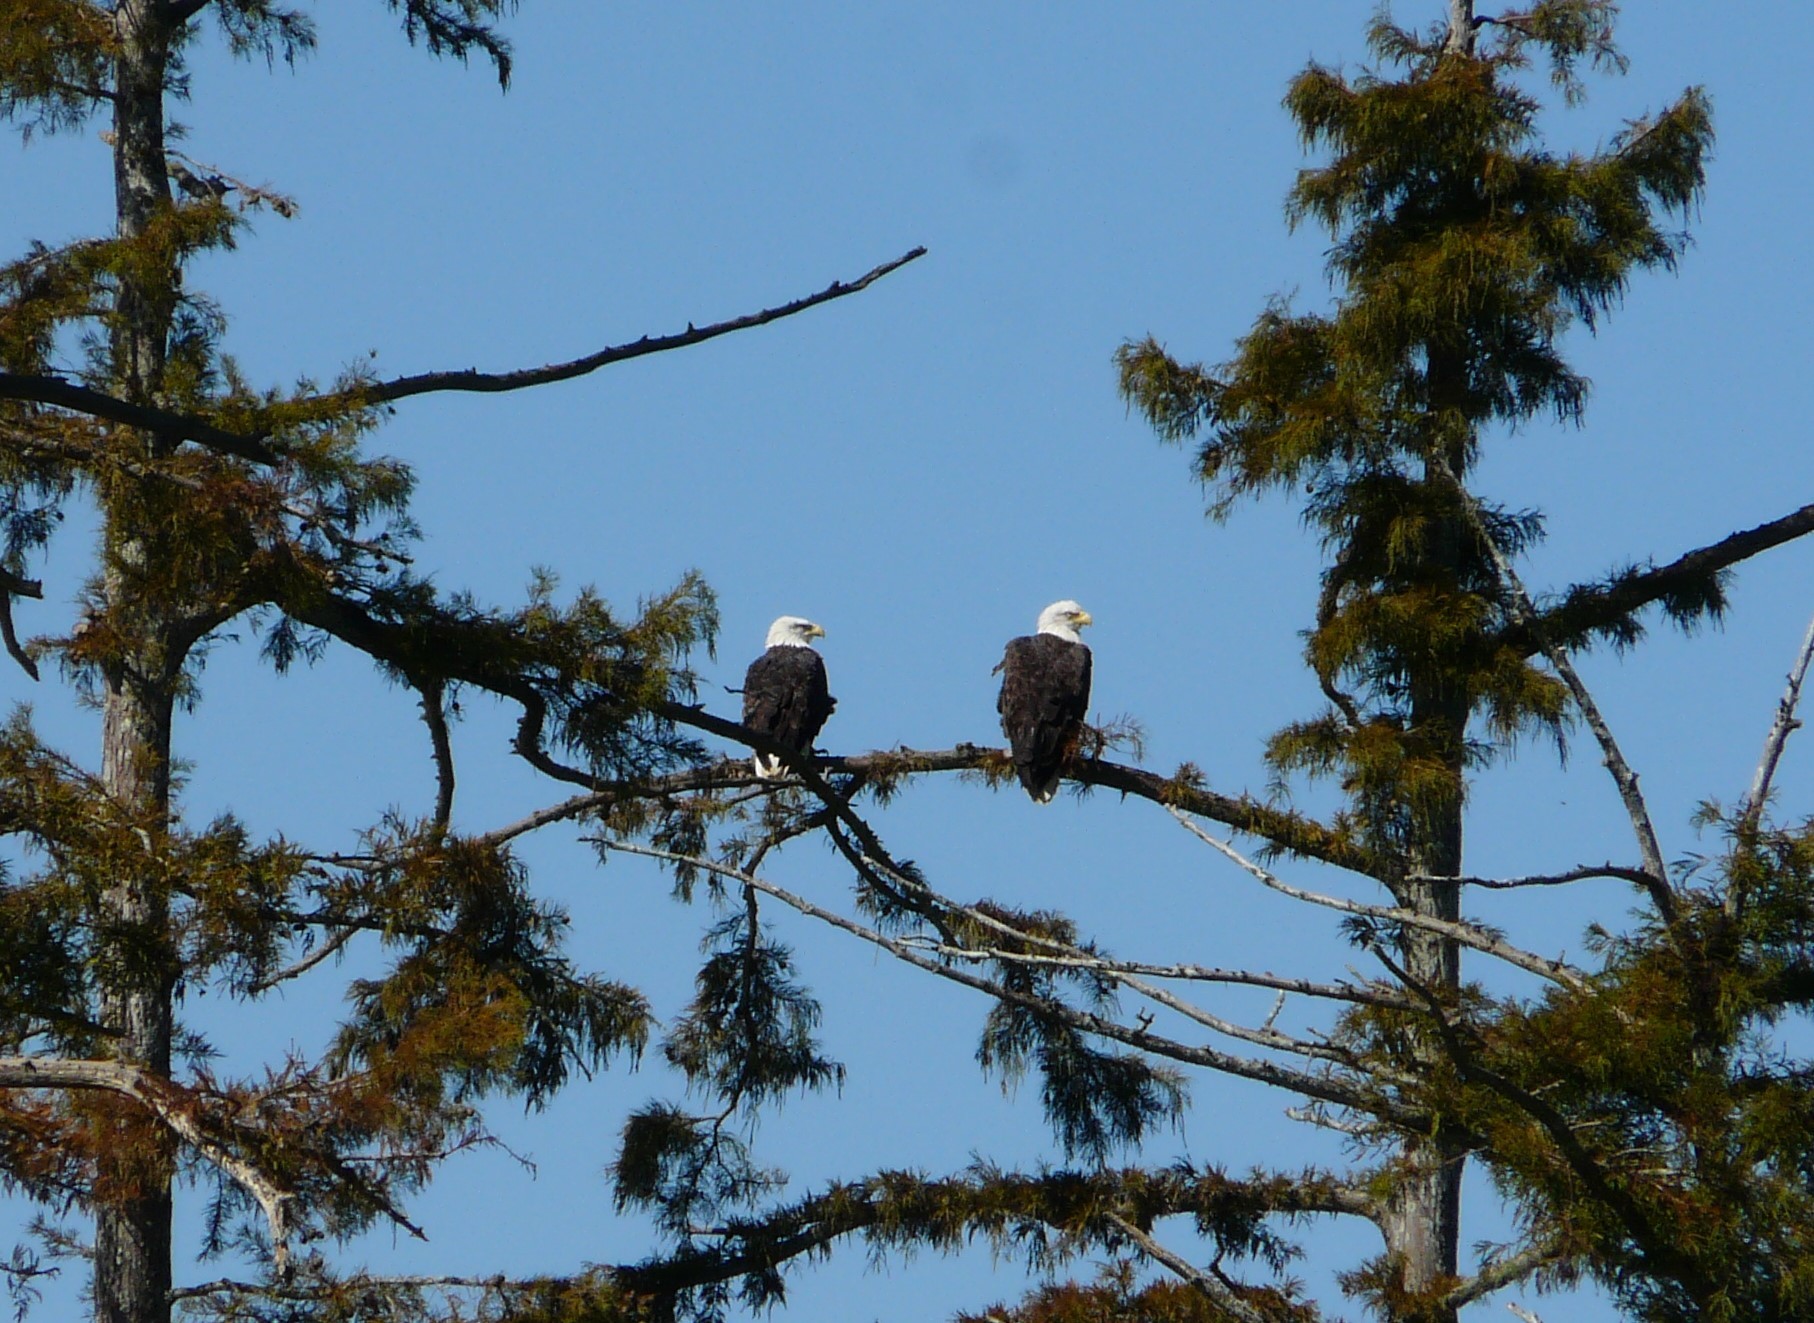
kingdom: Animalia
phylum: Chordata
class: Aves
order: Accipitriformes
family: Accipitridae
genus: Haliaeetus
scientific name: Haliaeetus leucocephalus
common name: Bald eagle
